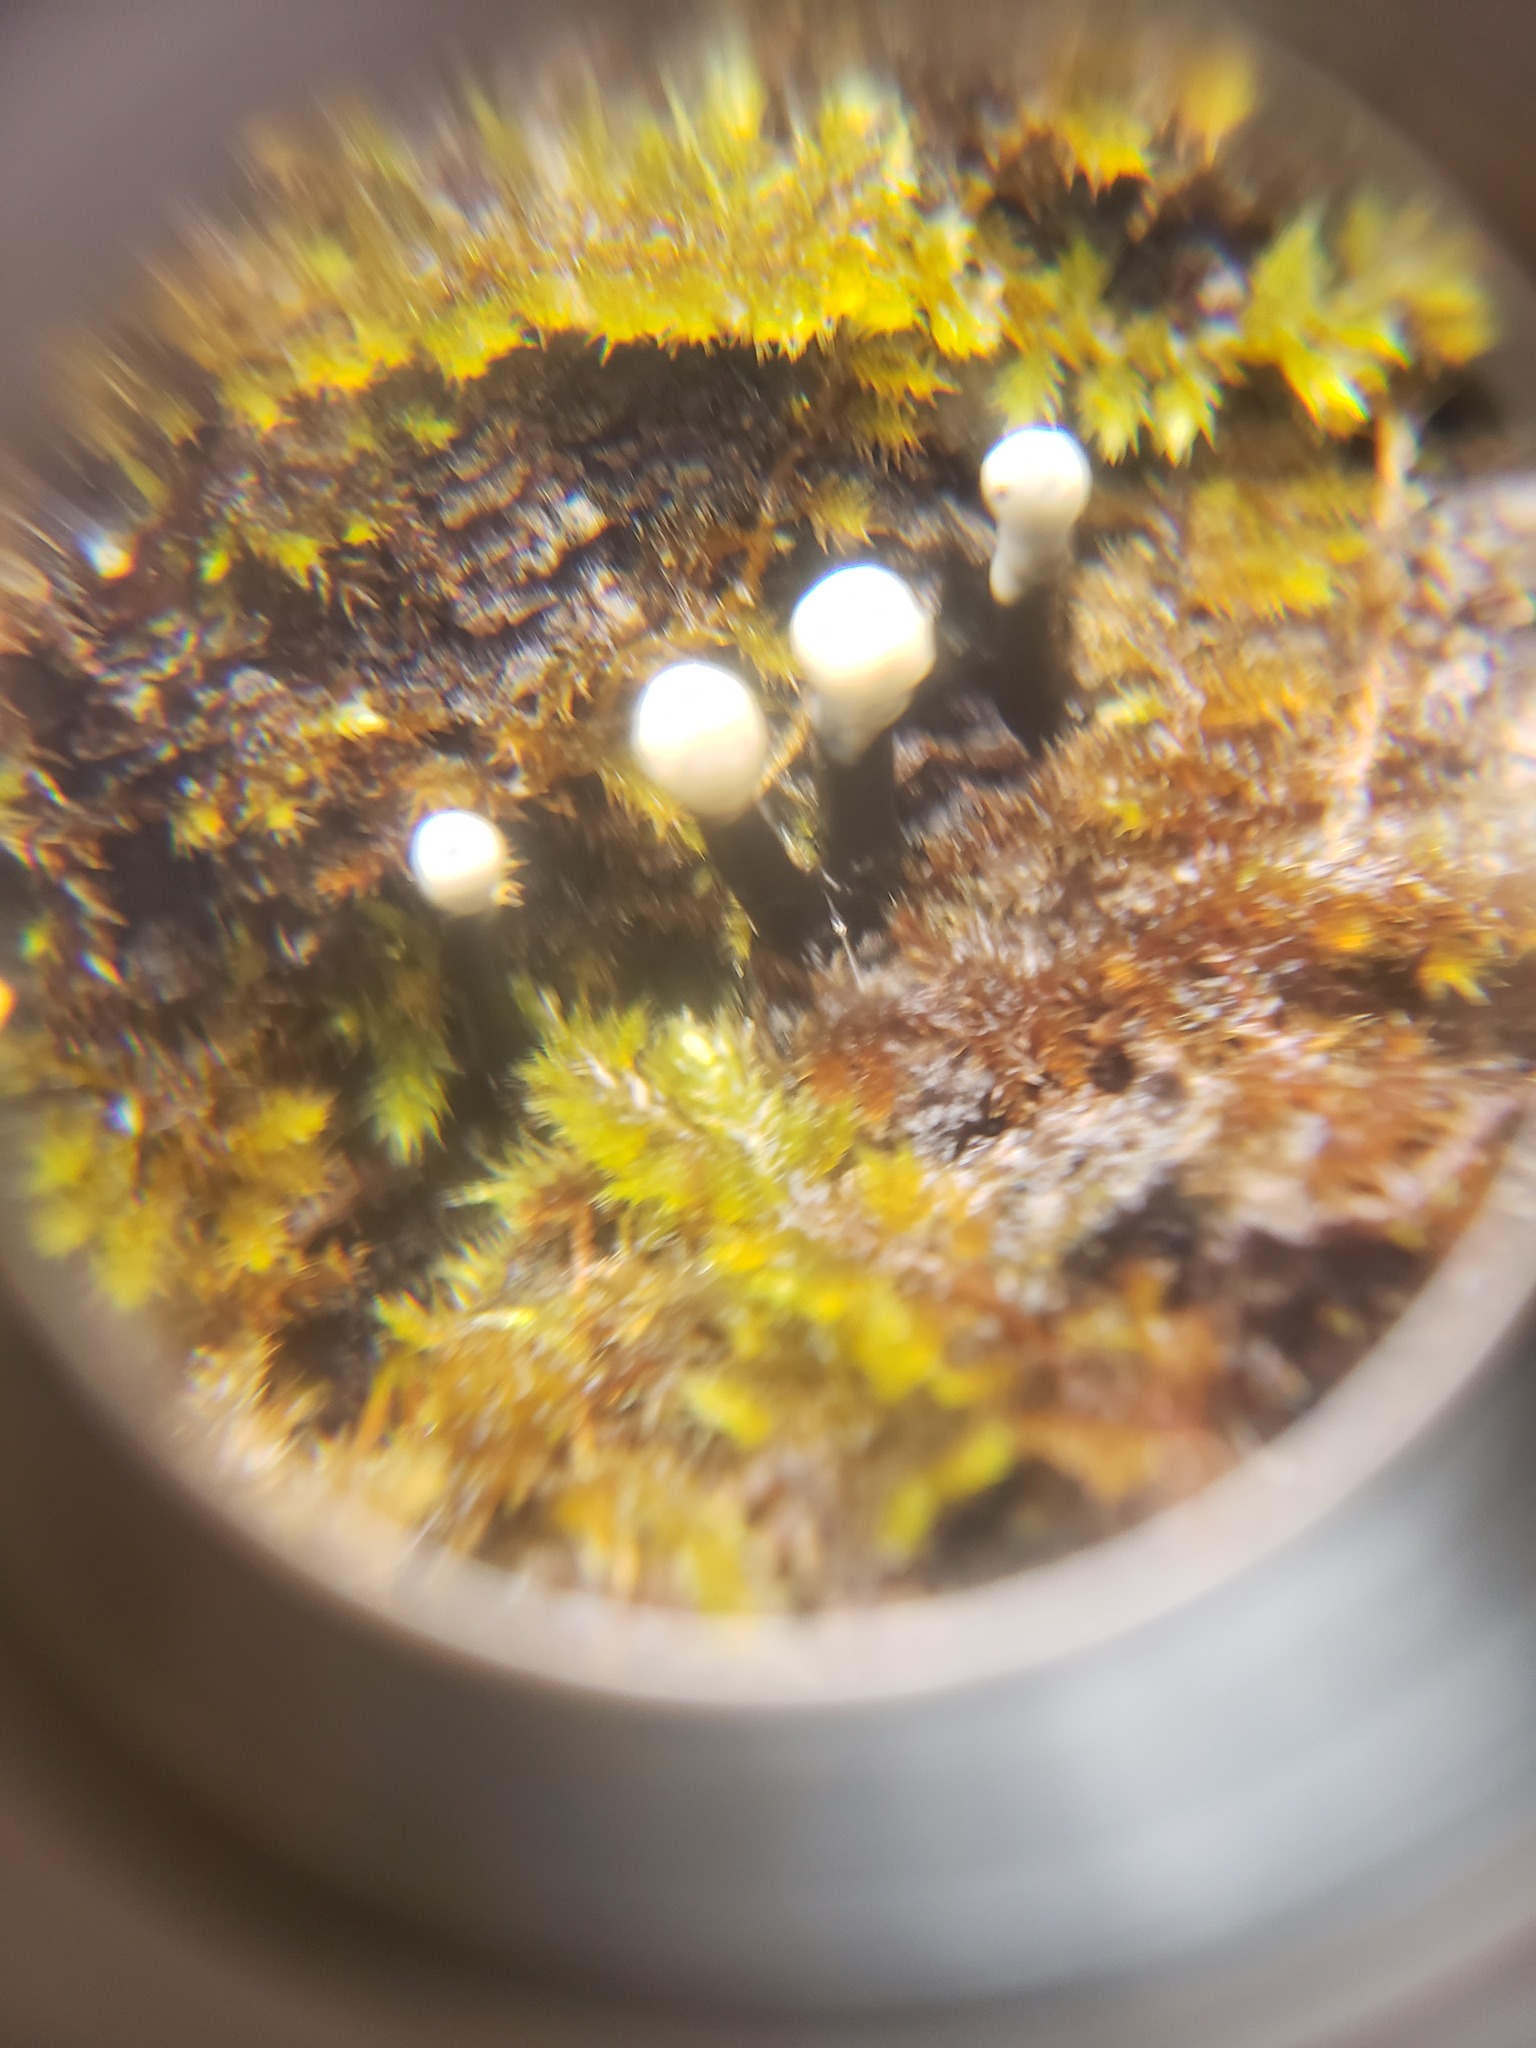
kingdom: Fungi
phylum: Ascomycota
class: Leotiomycetes
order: Helotiales
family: Bulgariaceae
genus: Holwaya
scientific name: Holwaya mucida
